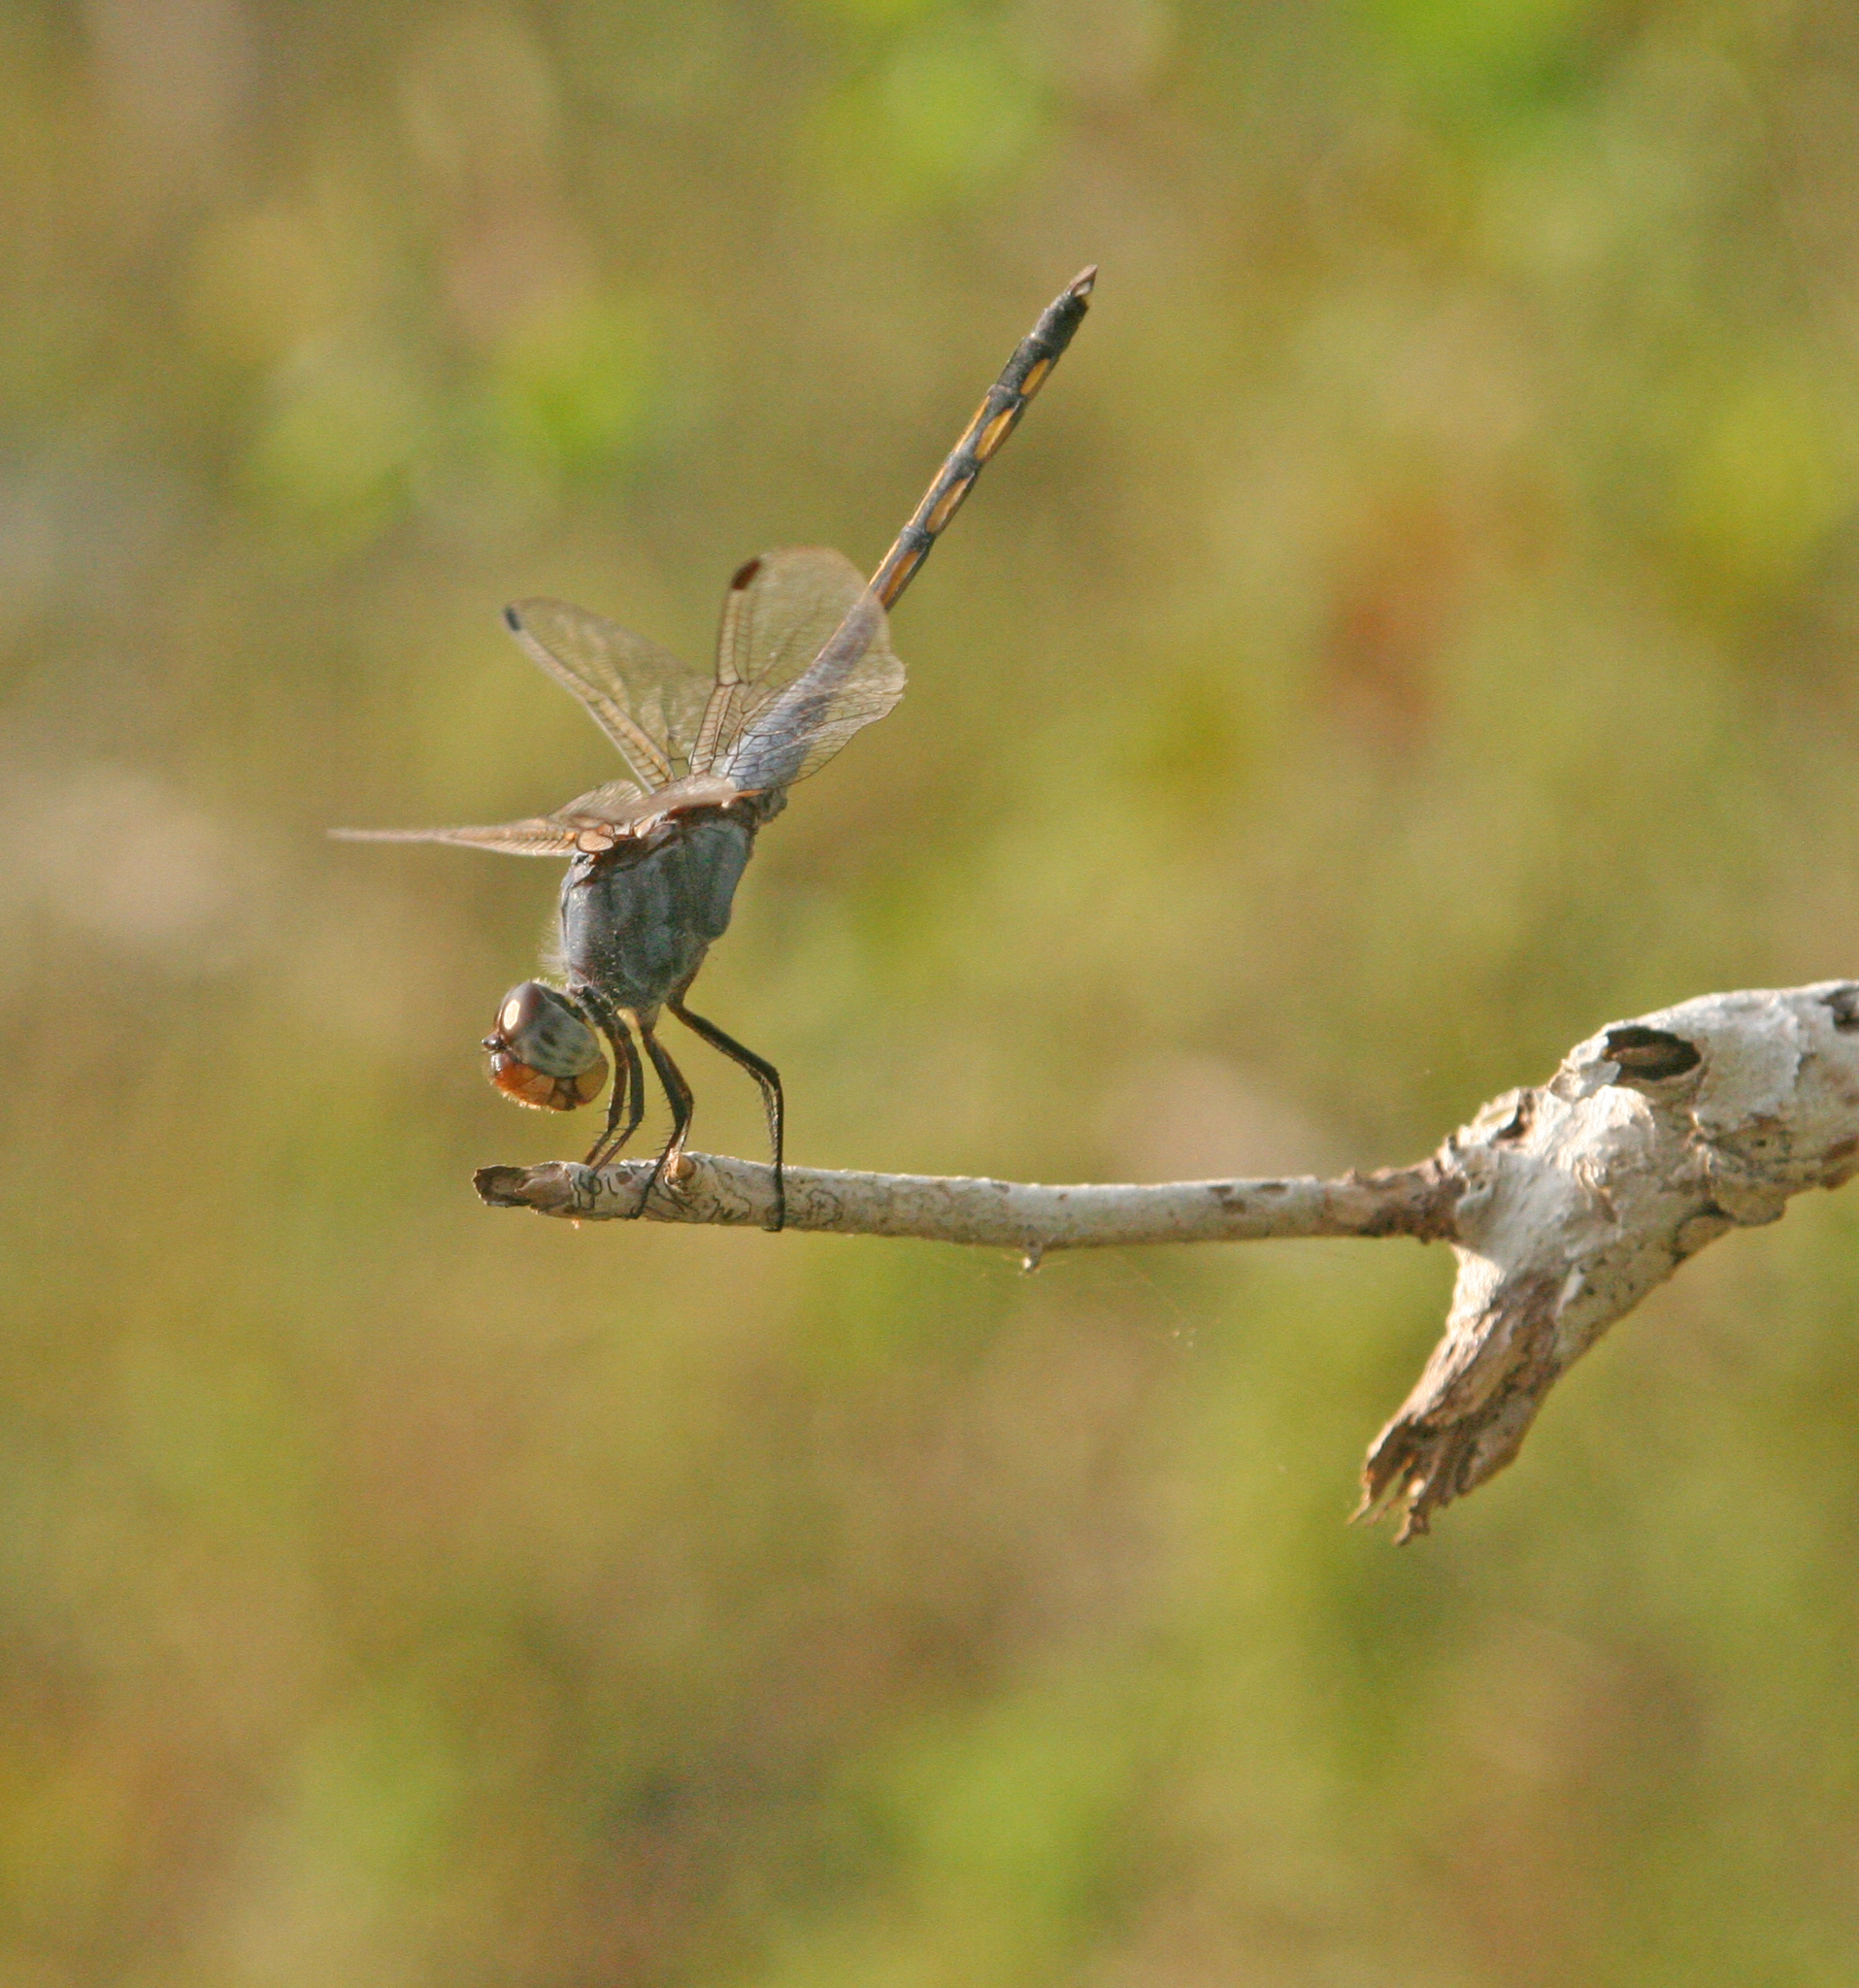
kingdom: Animalia
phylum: Arthropoda
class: Insecta
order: Odonata
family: Libellulidae
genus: Potamarcha
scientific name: Potamarcha congener
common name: Blue chaser
